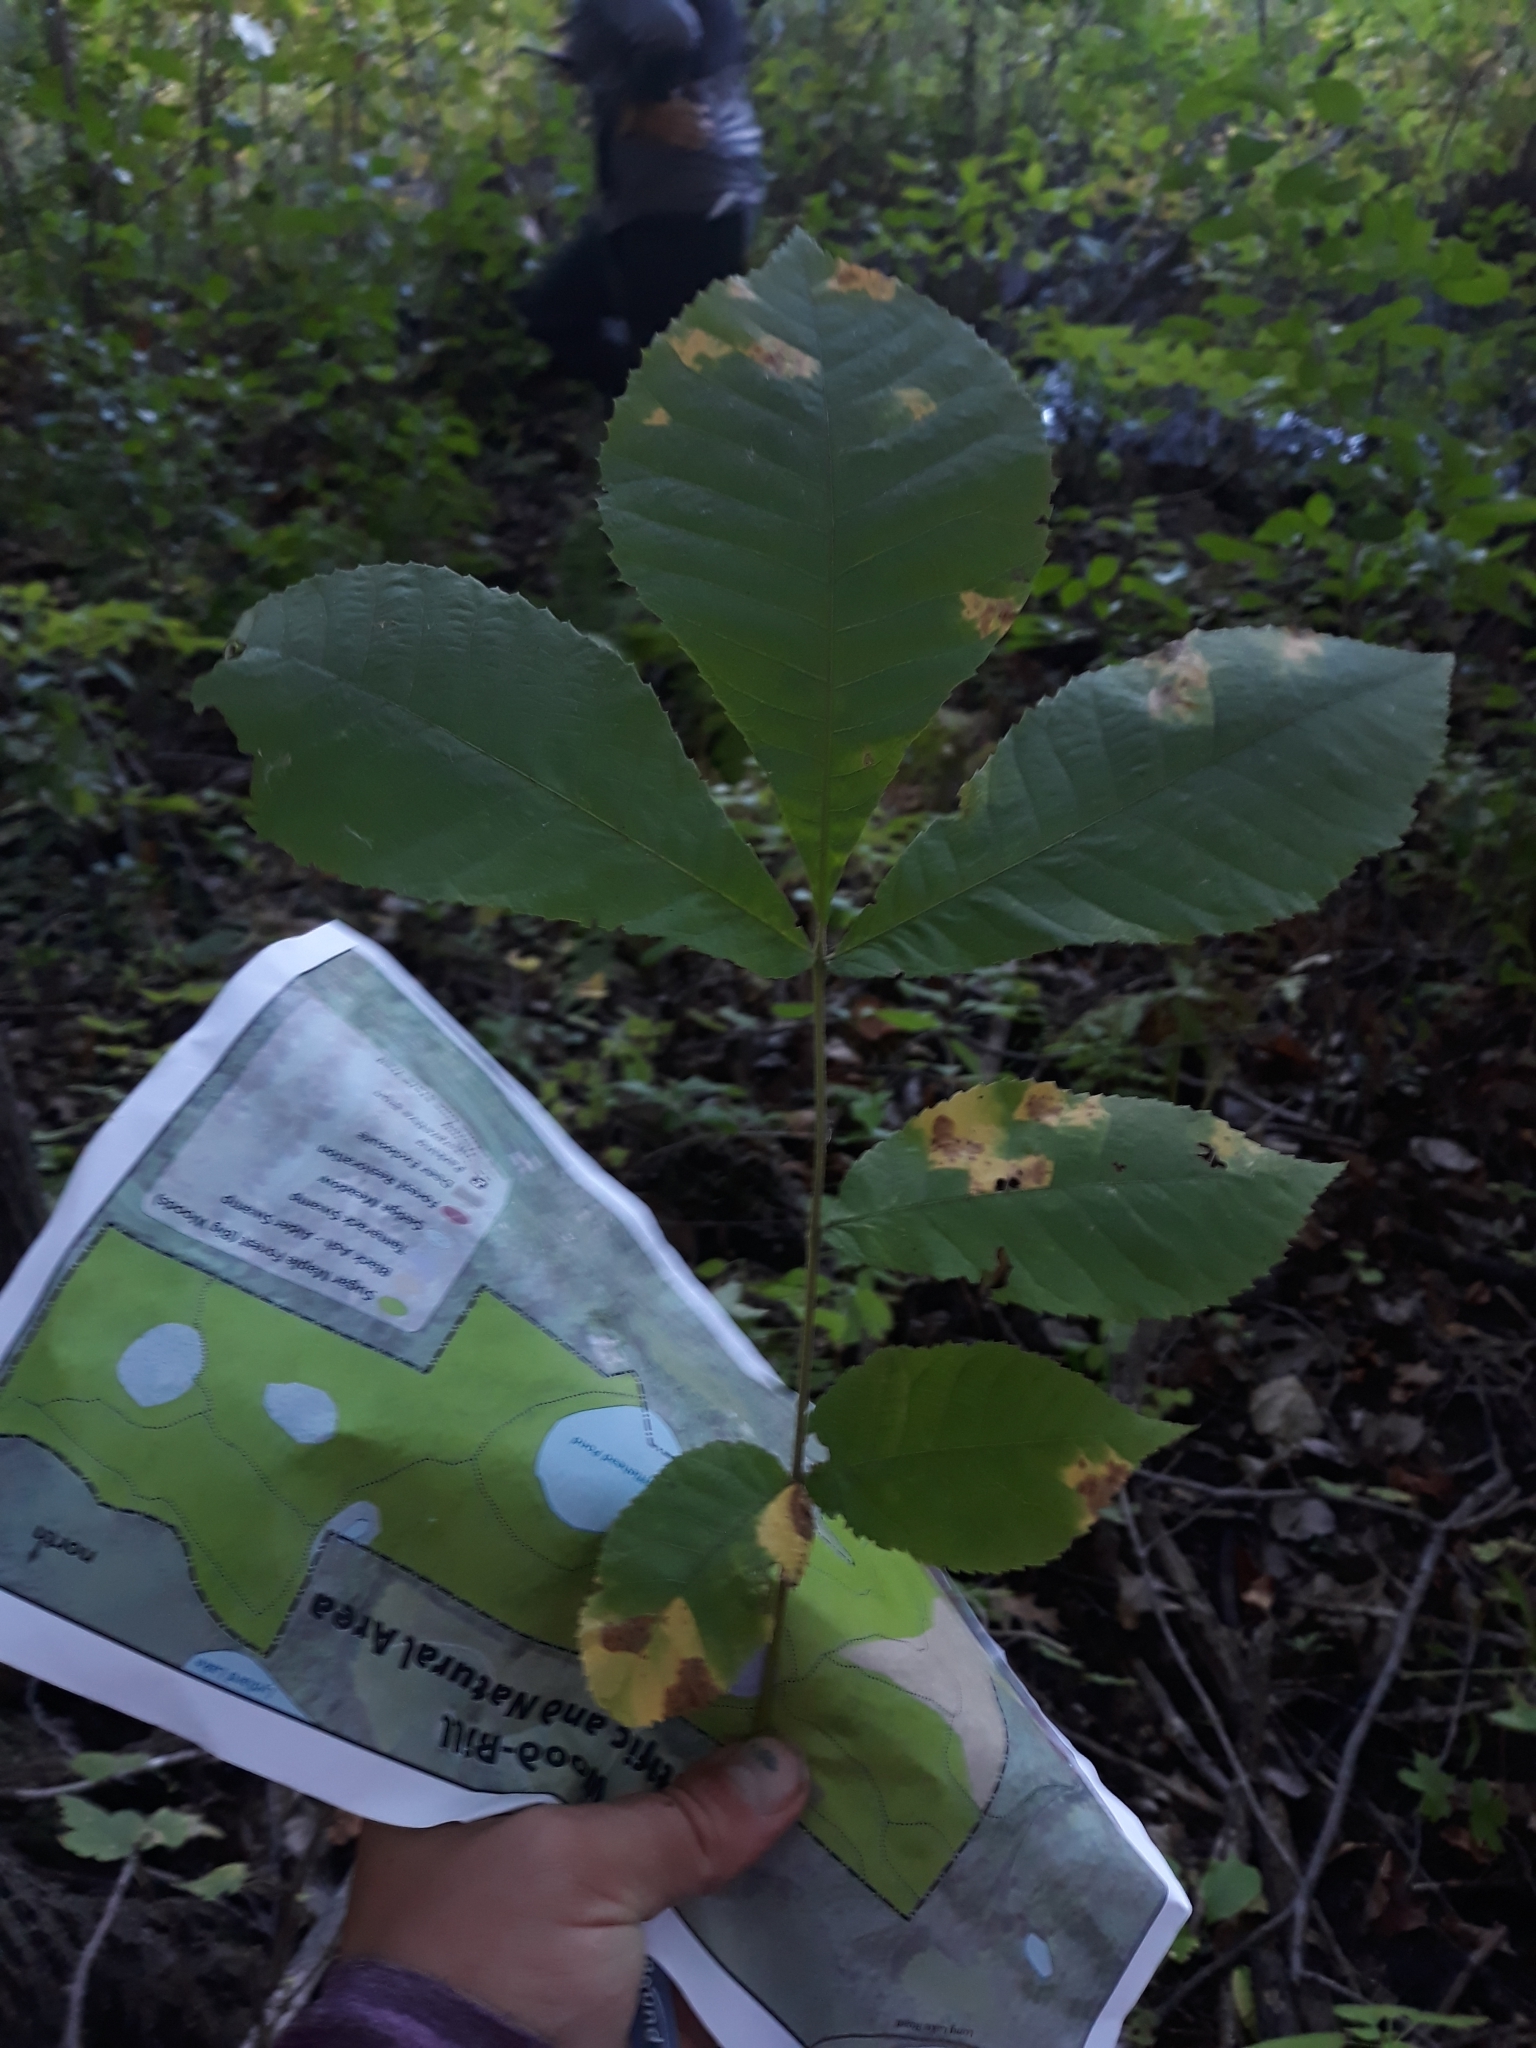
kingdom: Plantae
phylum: Tracheophyta
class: Magnoliopsida
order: Fagales
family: Juglandaceae
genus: Carya
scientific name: Carya cordiformis
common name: Bitternut hickory
